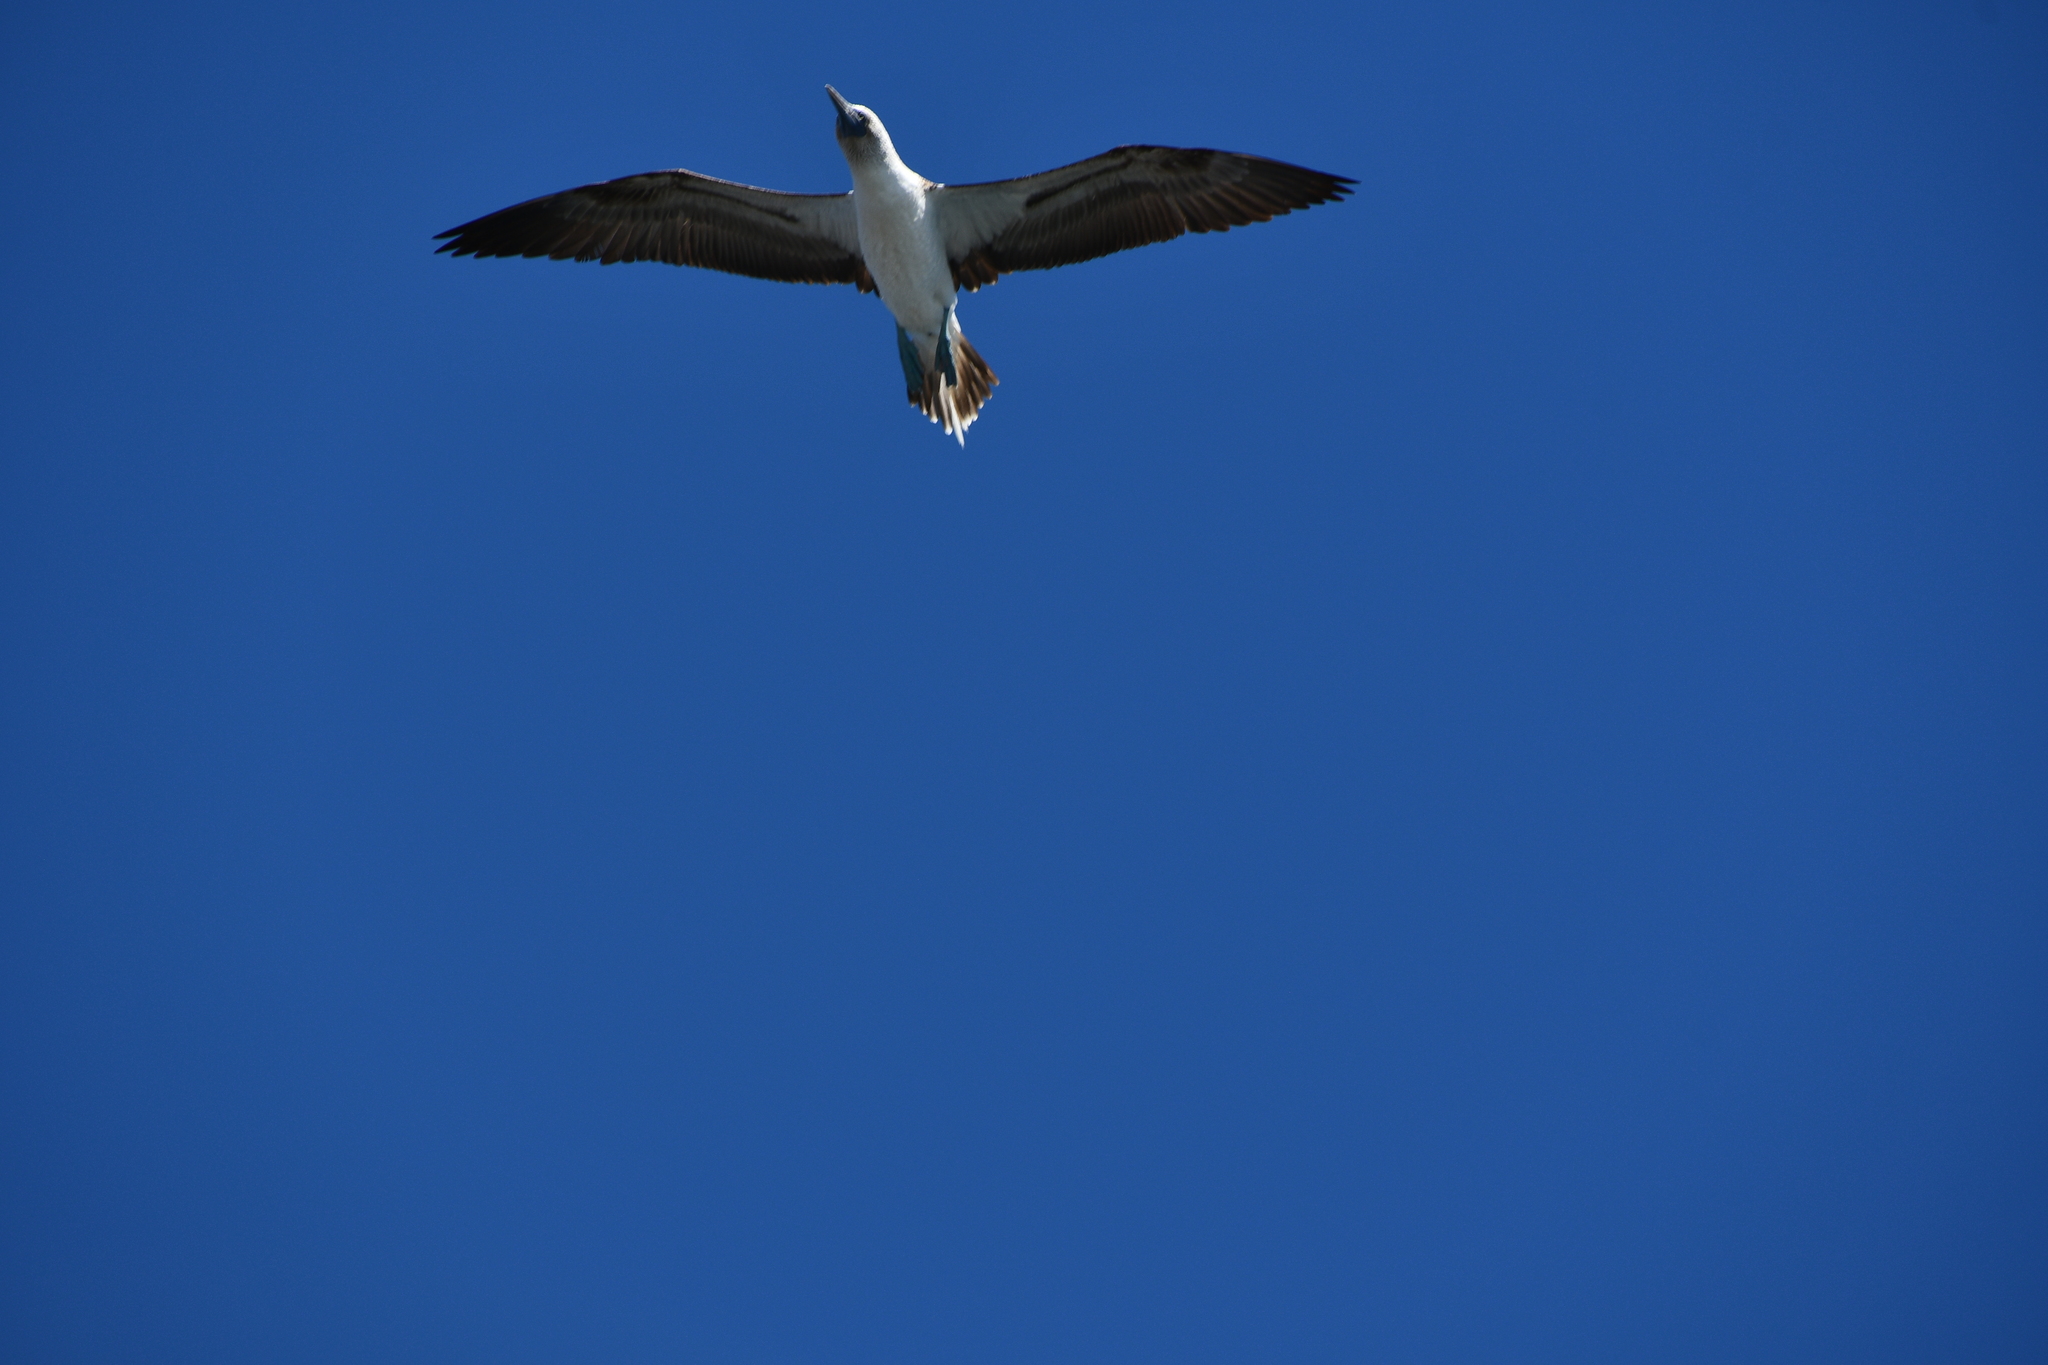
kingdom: Animalia
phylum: Chordata
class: Aves
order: Suliformes
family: Sulidae
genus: Sula
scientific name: Sula nebouxii
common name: Blue-footed booby
